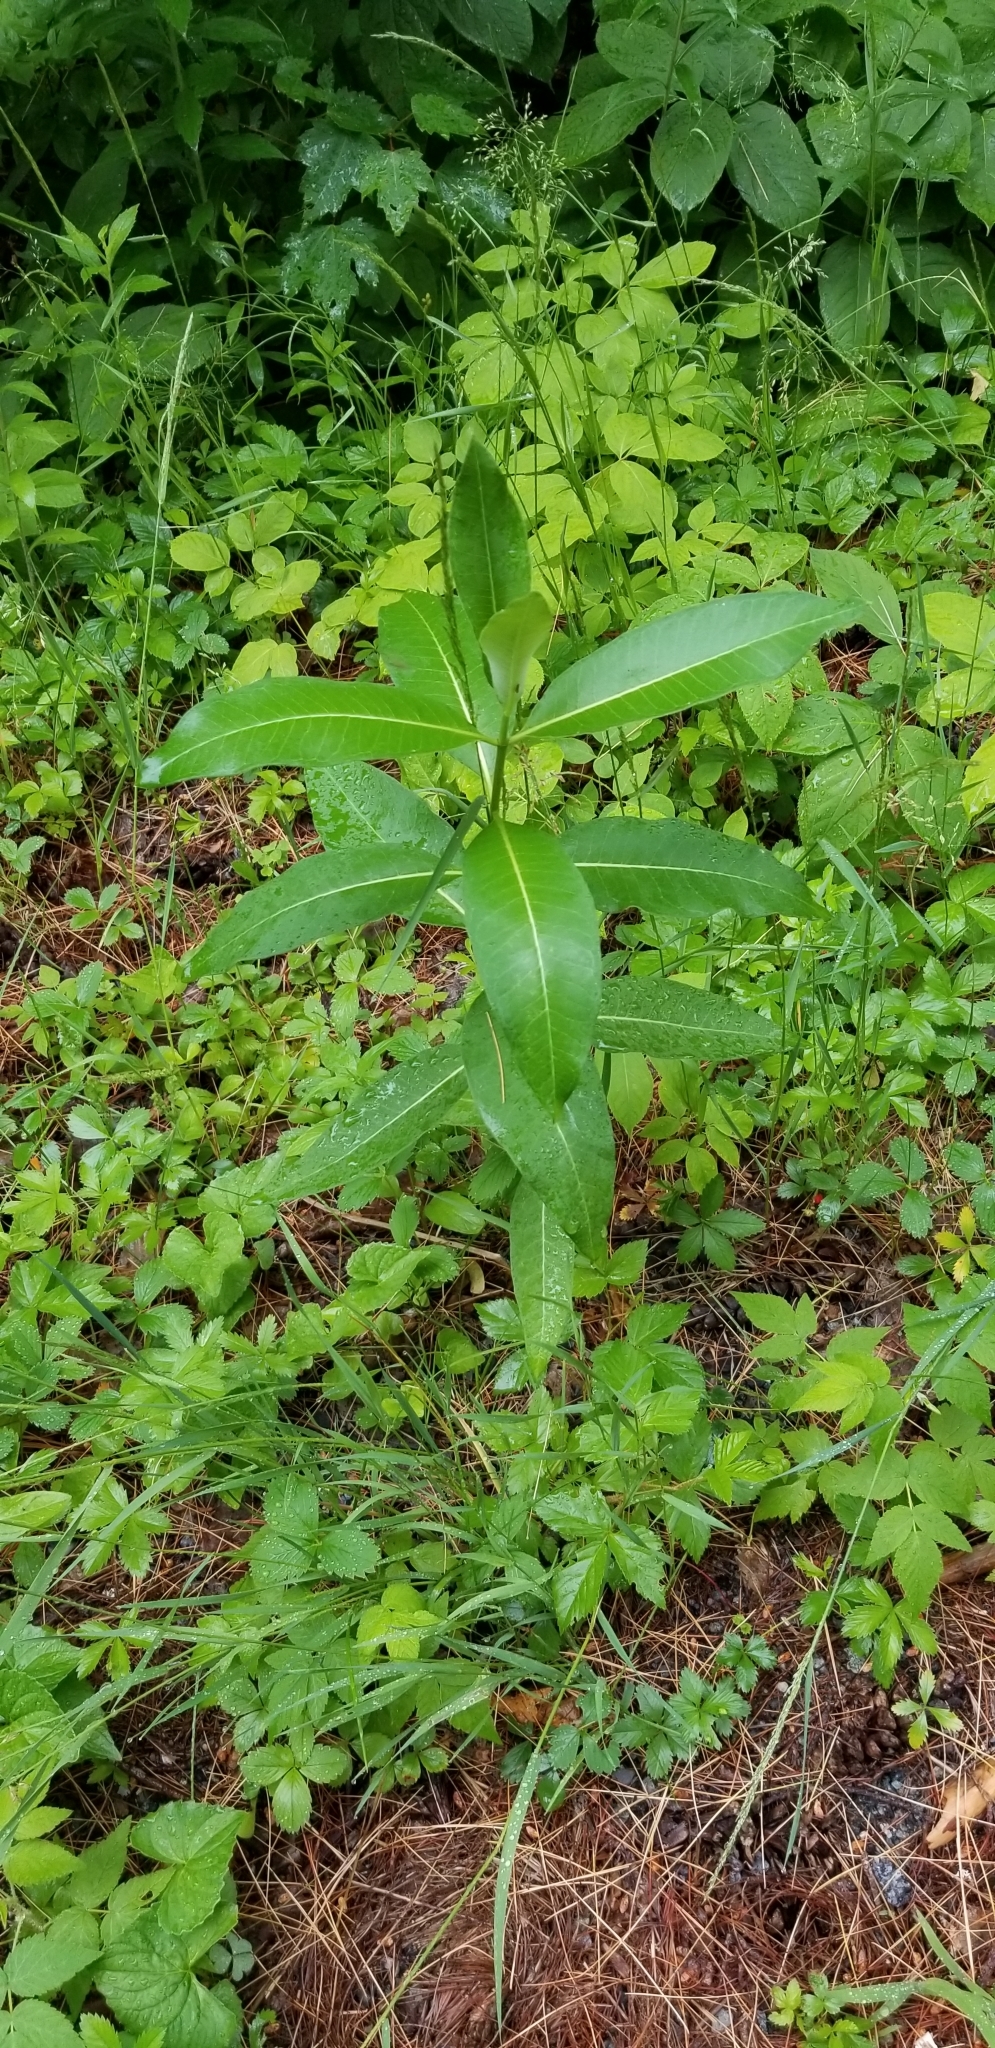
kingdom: Plantae
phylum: Tracheophyta
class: Magnoliopsida
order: Gentianales
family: Apocynaceae
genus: Asclepias
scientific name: Asclepias syriaca
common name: Common milkweed
